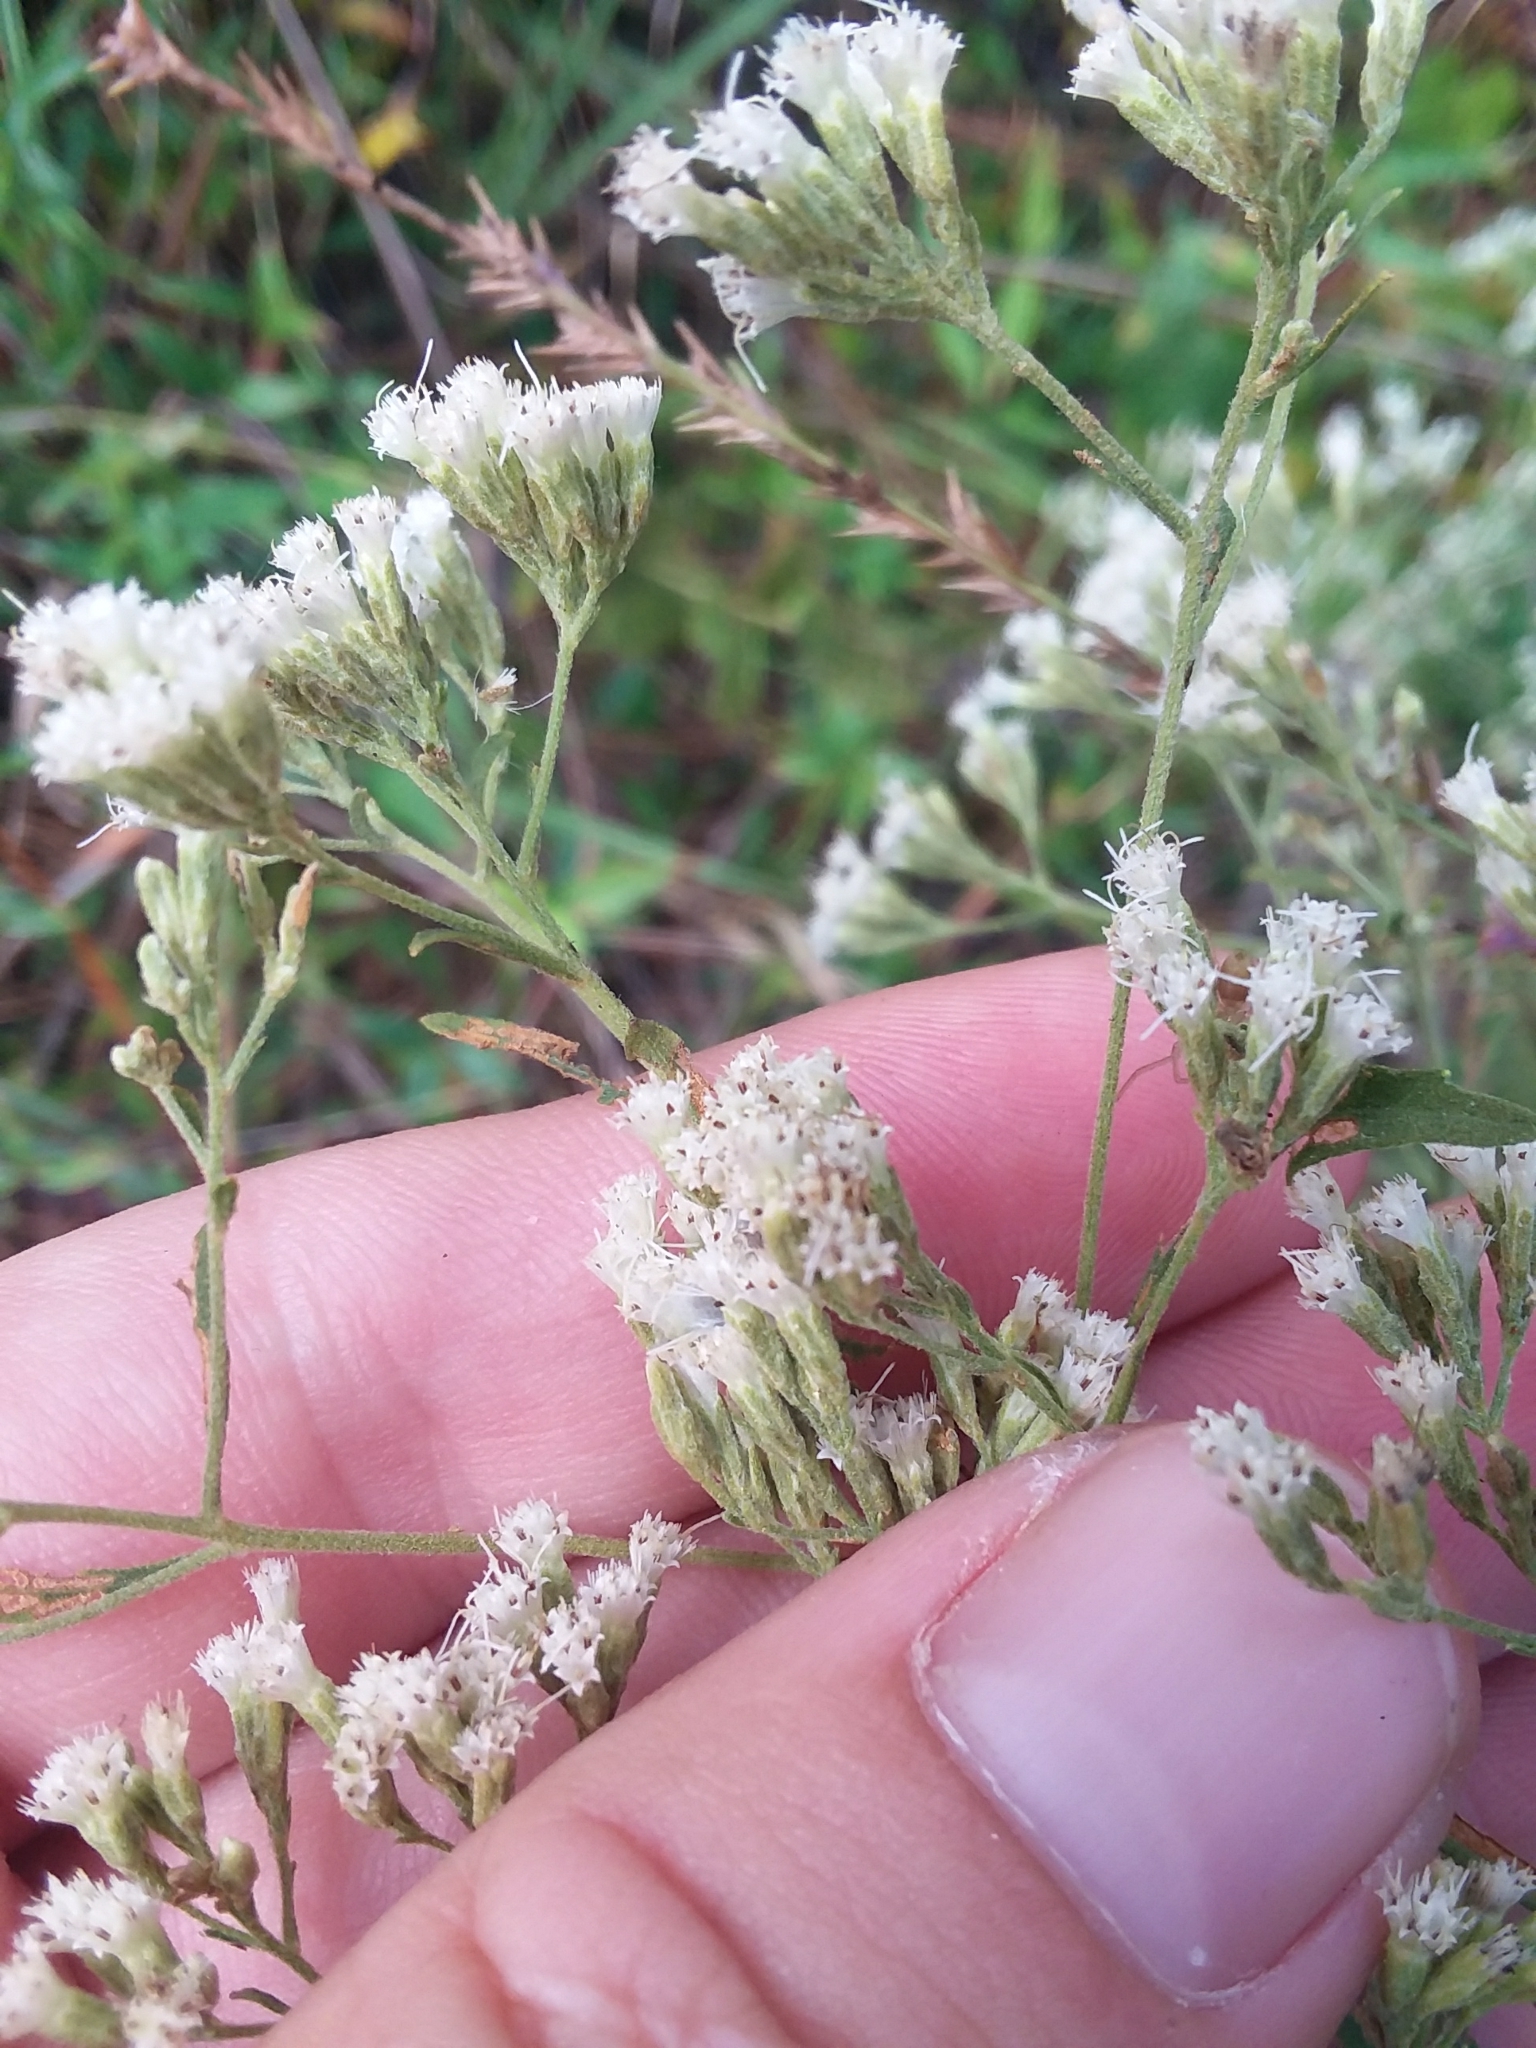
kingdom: Plantae
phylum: Tracheophyta
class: Magnoliopsida
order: Asterales
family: Asteraceae
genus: Eupatorium
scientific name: Eupatorium semiserratum
